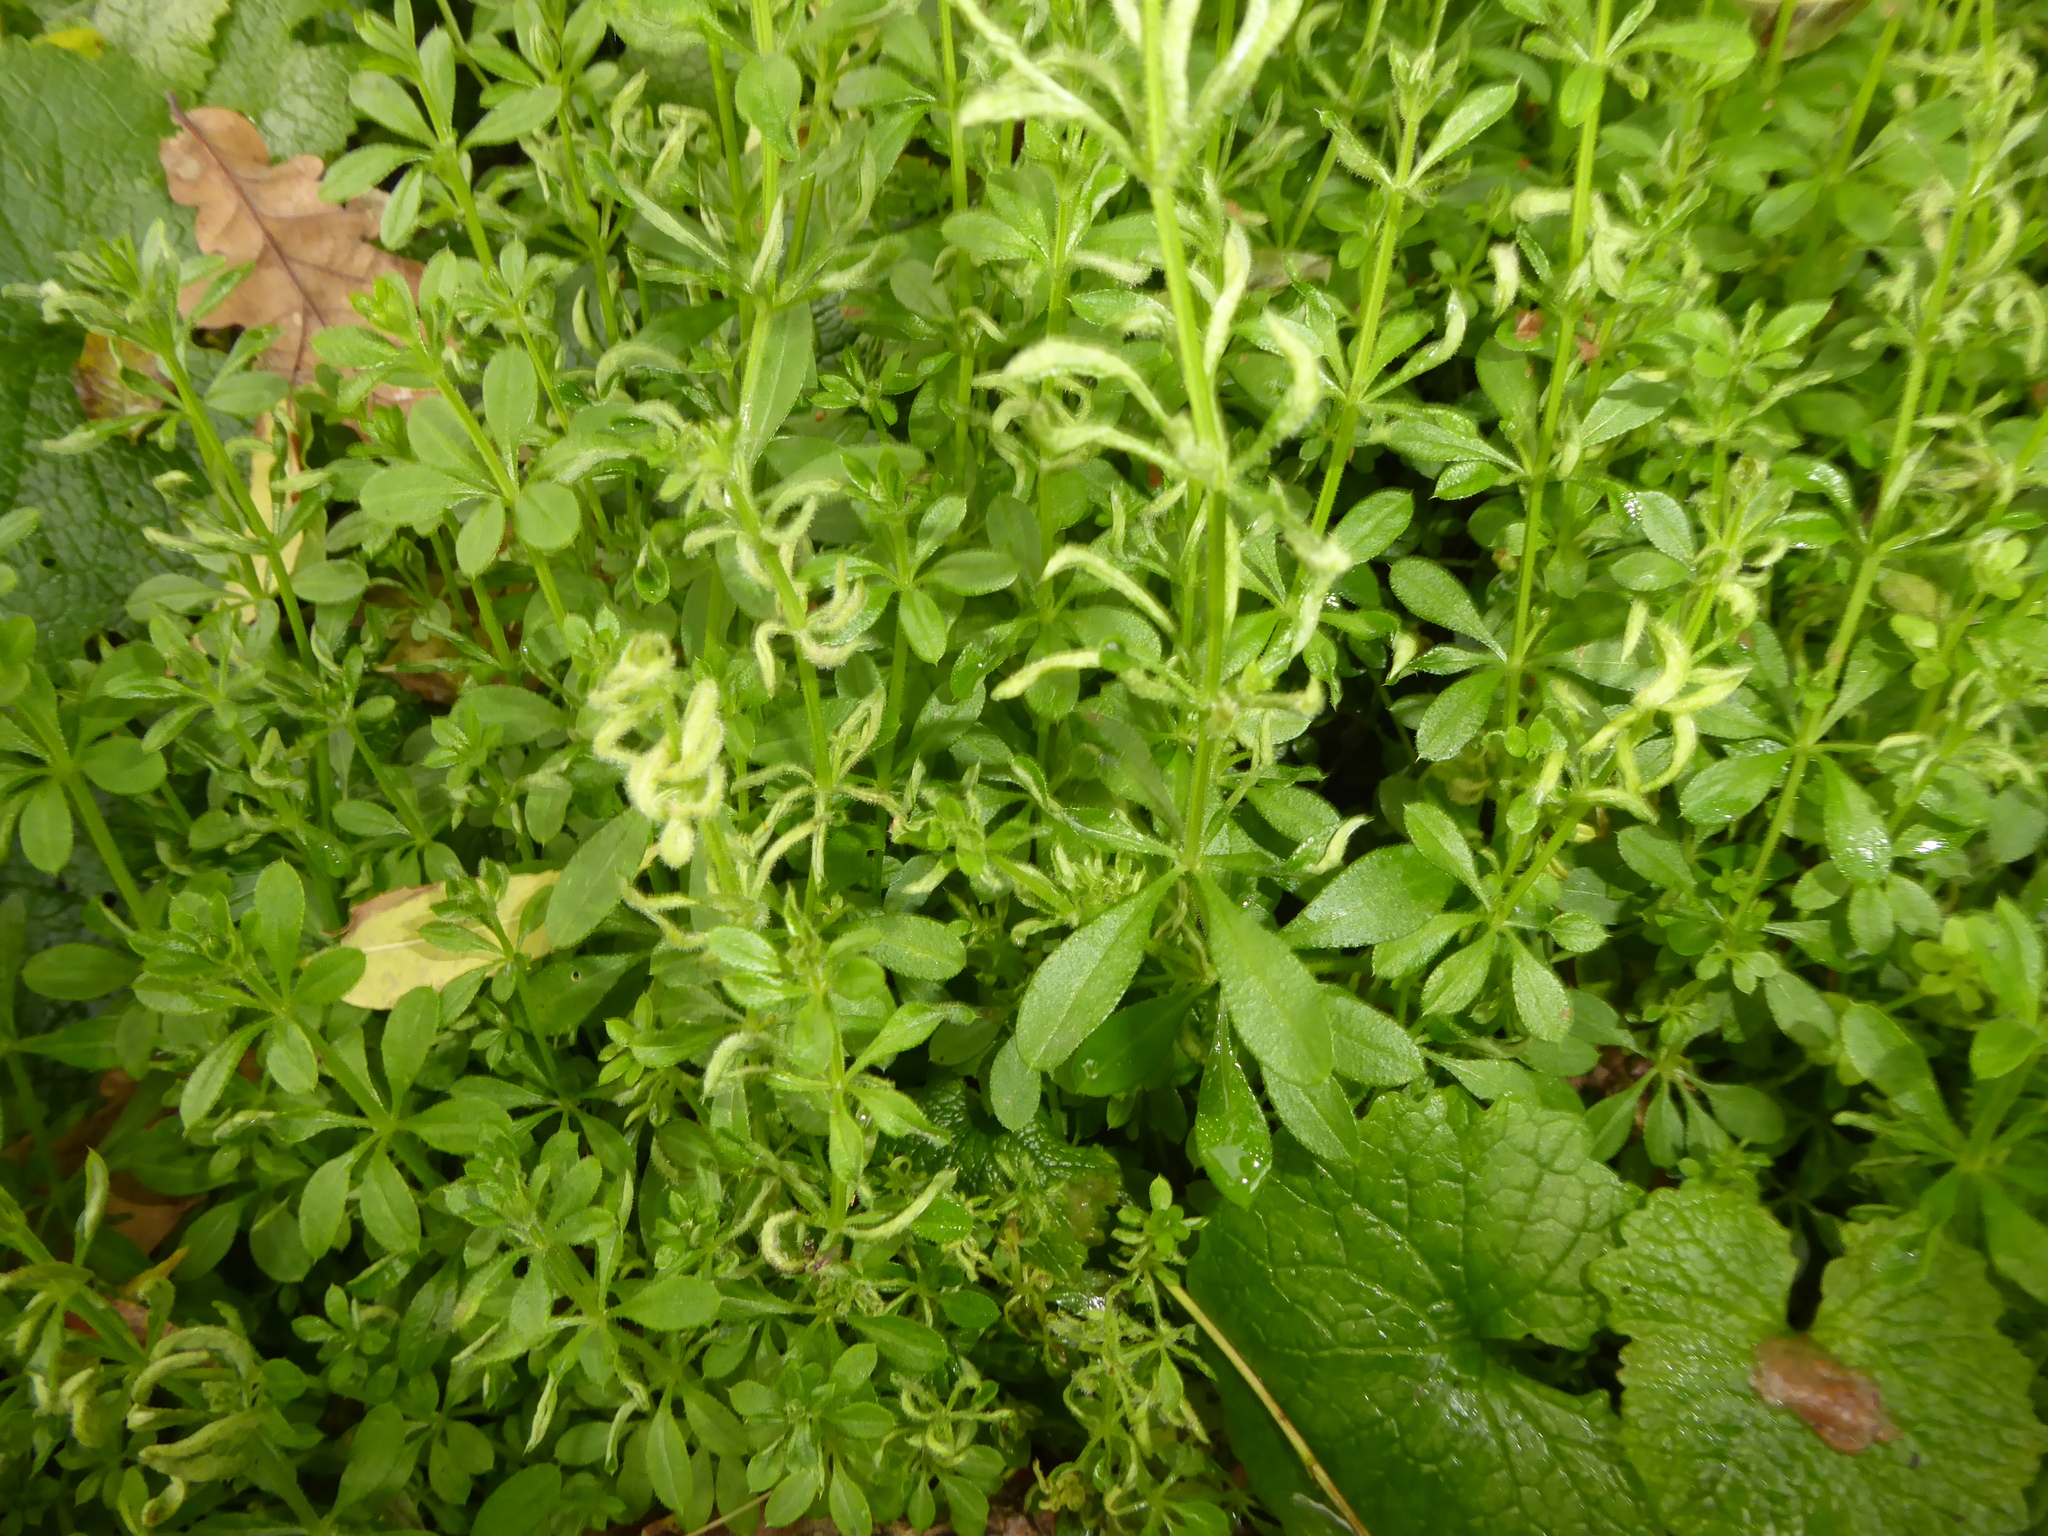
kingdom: Animalia
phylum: Arthropoda
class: Arachnida
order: Trombidiformes
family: Eriophyidae
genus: Cecidophyes
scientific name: Cecidophyes rouhollahi
